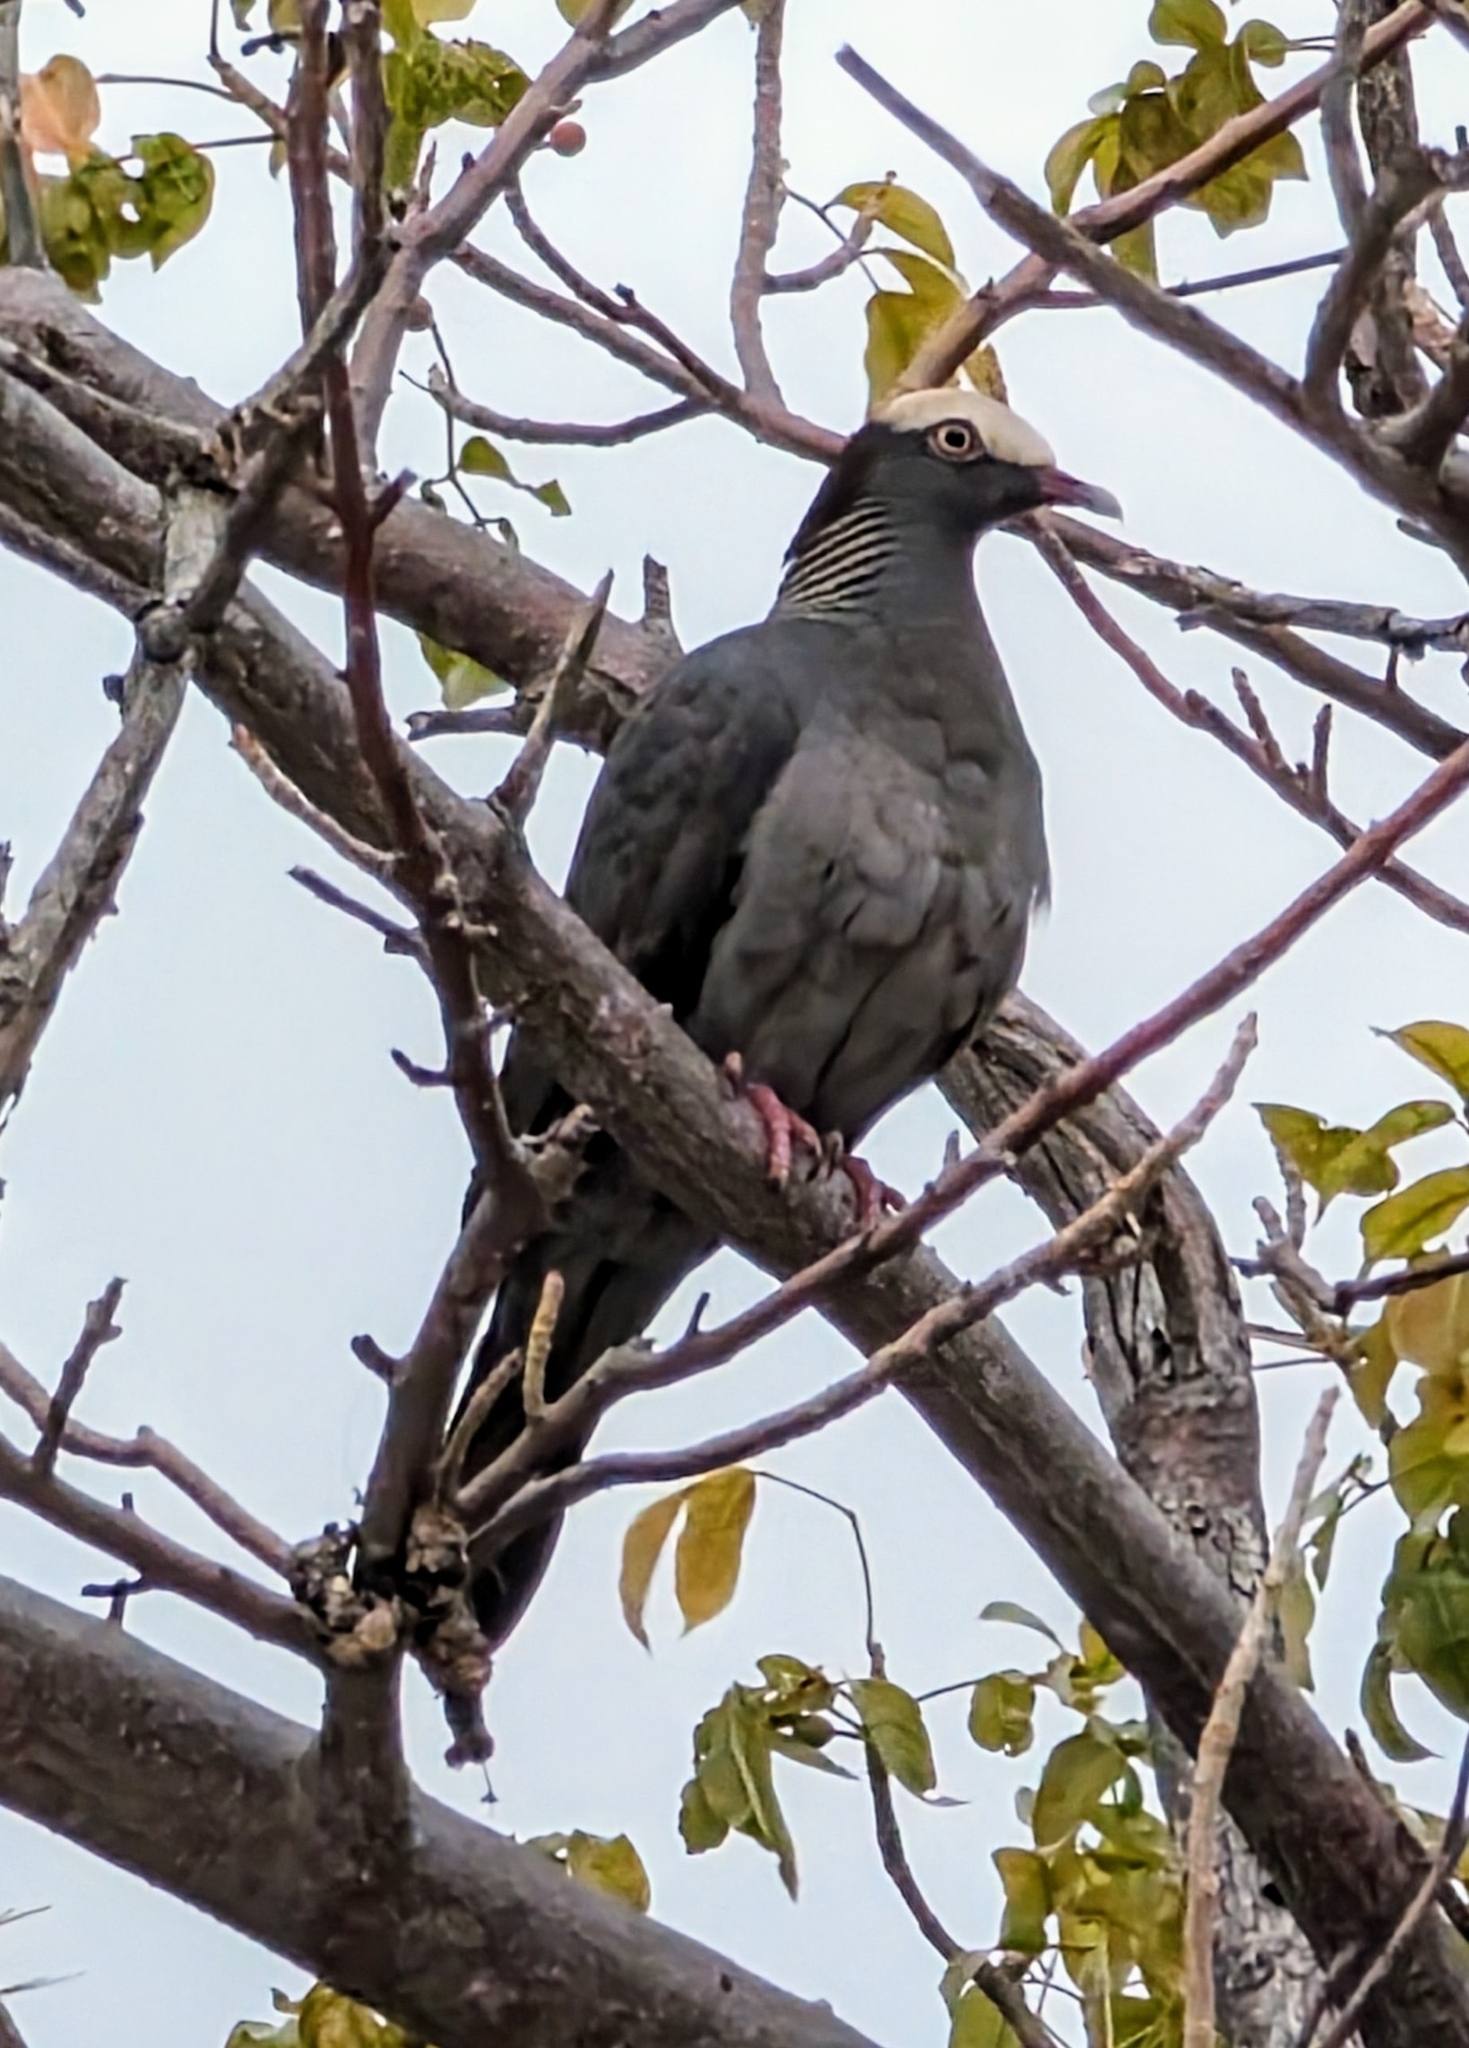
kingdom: Animalia
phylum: Chordata
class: Aves
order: Columbiformes
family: Columbidae
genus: Patagioenas
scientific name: Patagioenas leucocephala
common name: White-crowned pigeon
